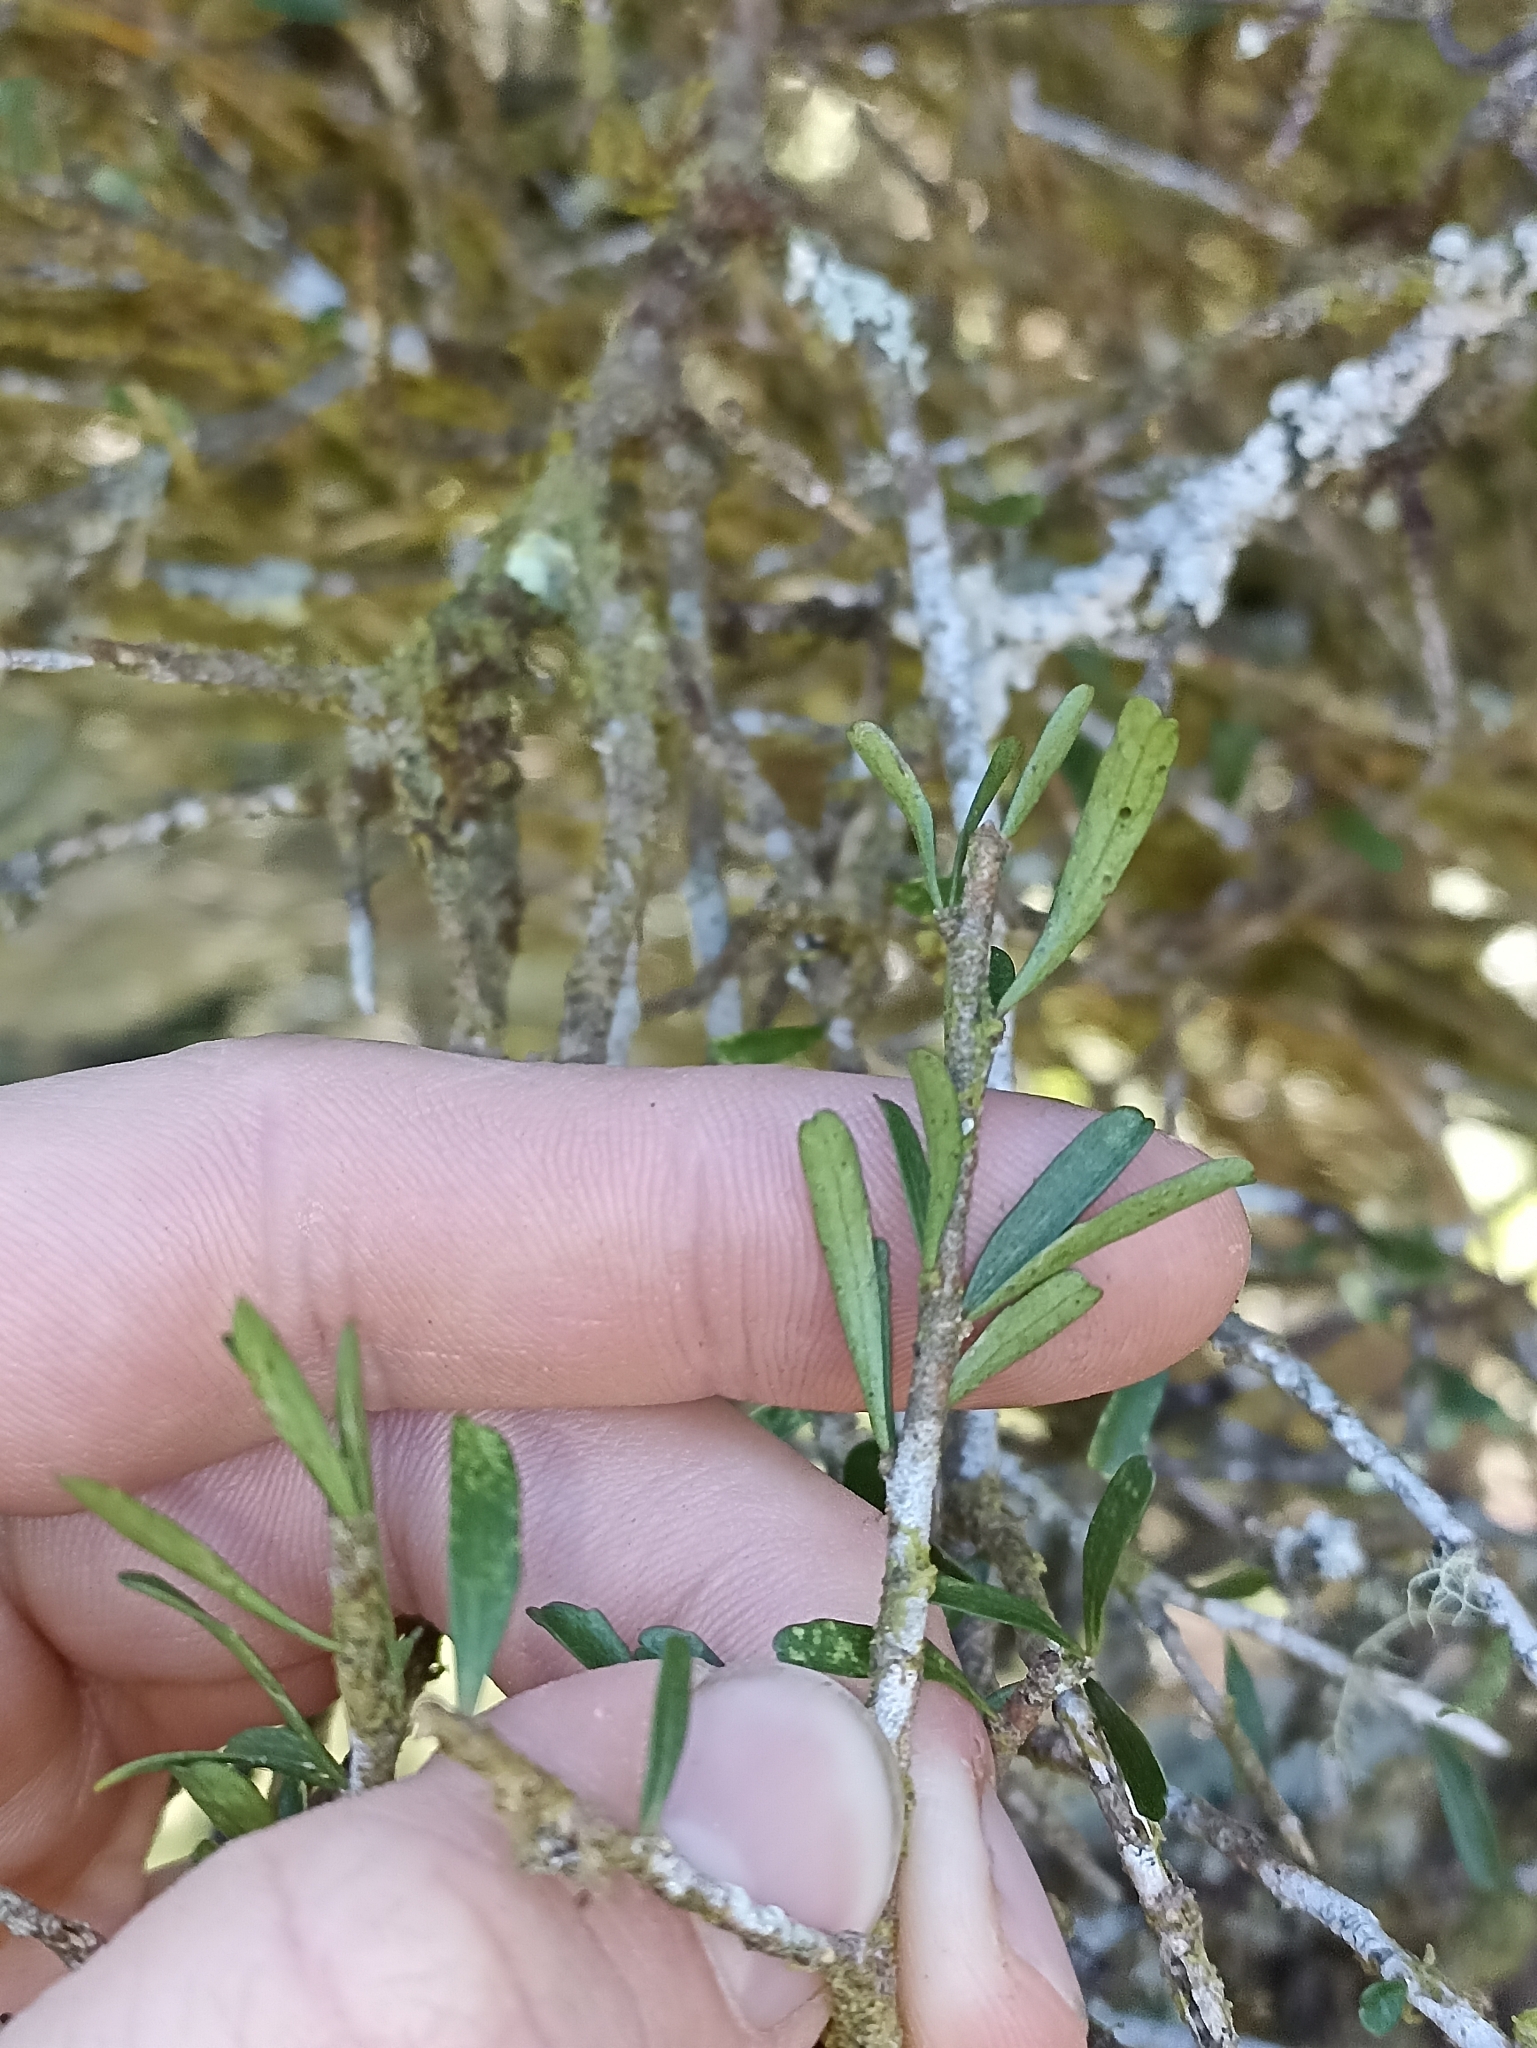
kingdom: Plantae
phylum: Tracheophyta
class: Magnoliopsida
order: Malpighiales
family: Violaceae
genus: Melicytus
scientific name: Melicytus flexuosus
